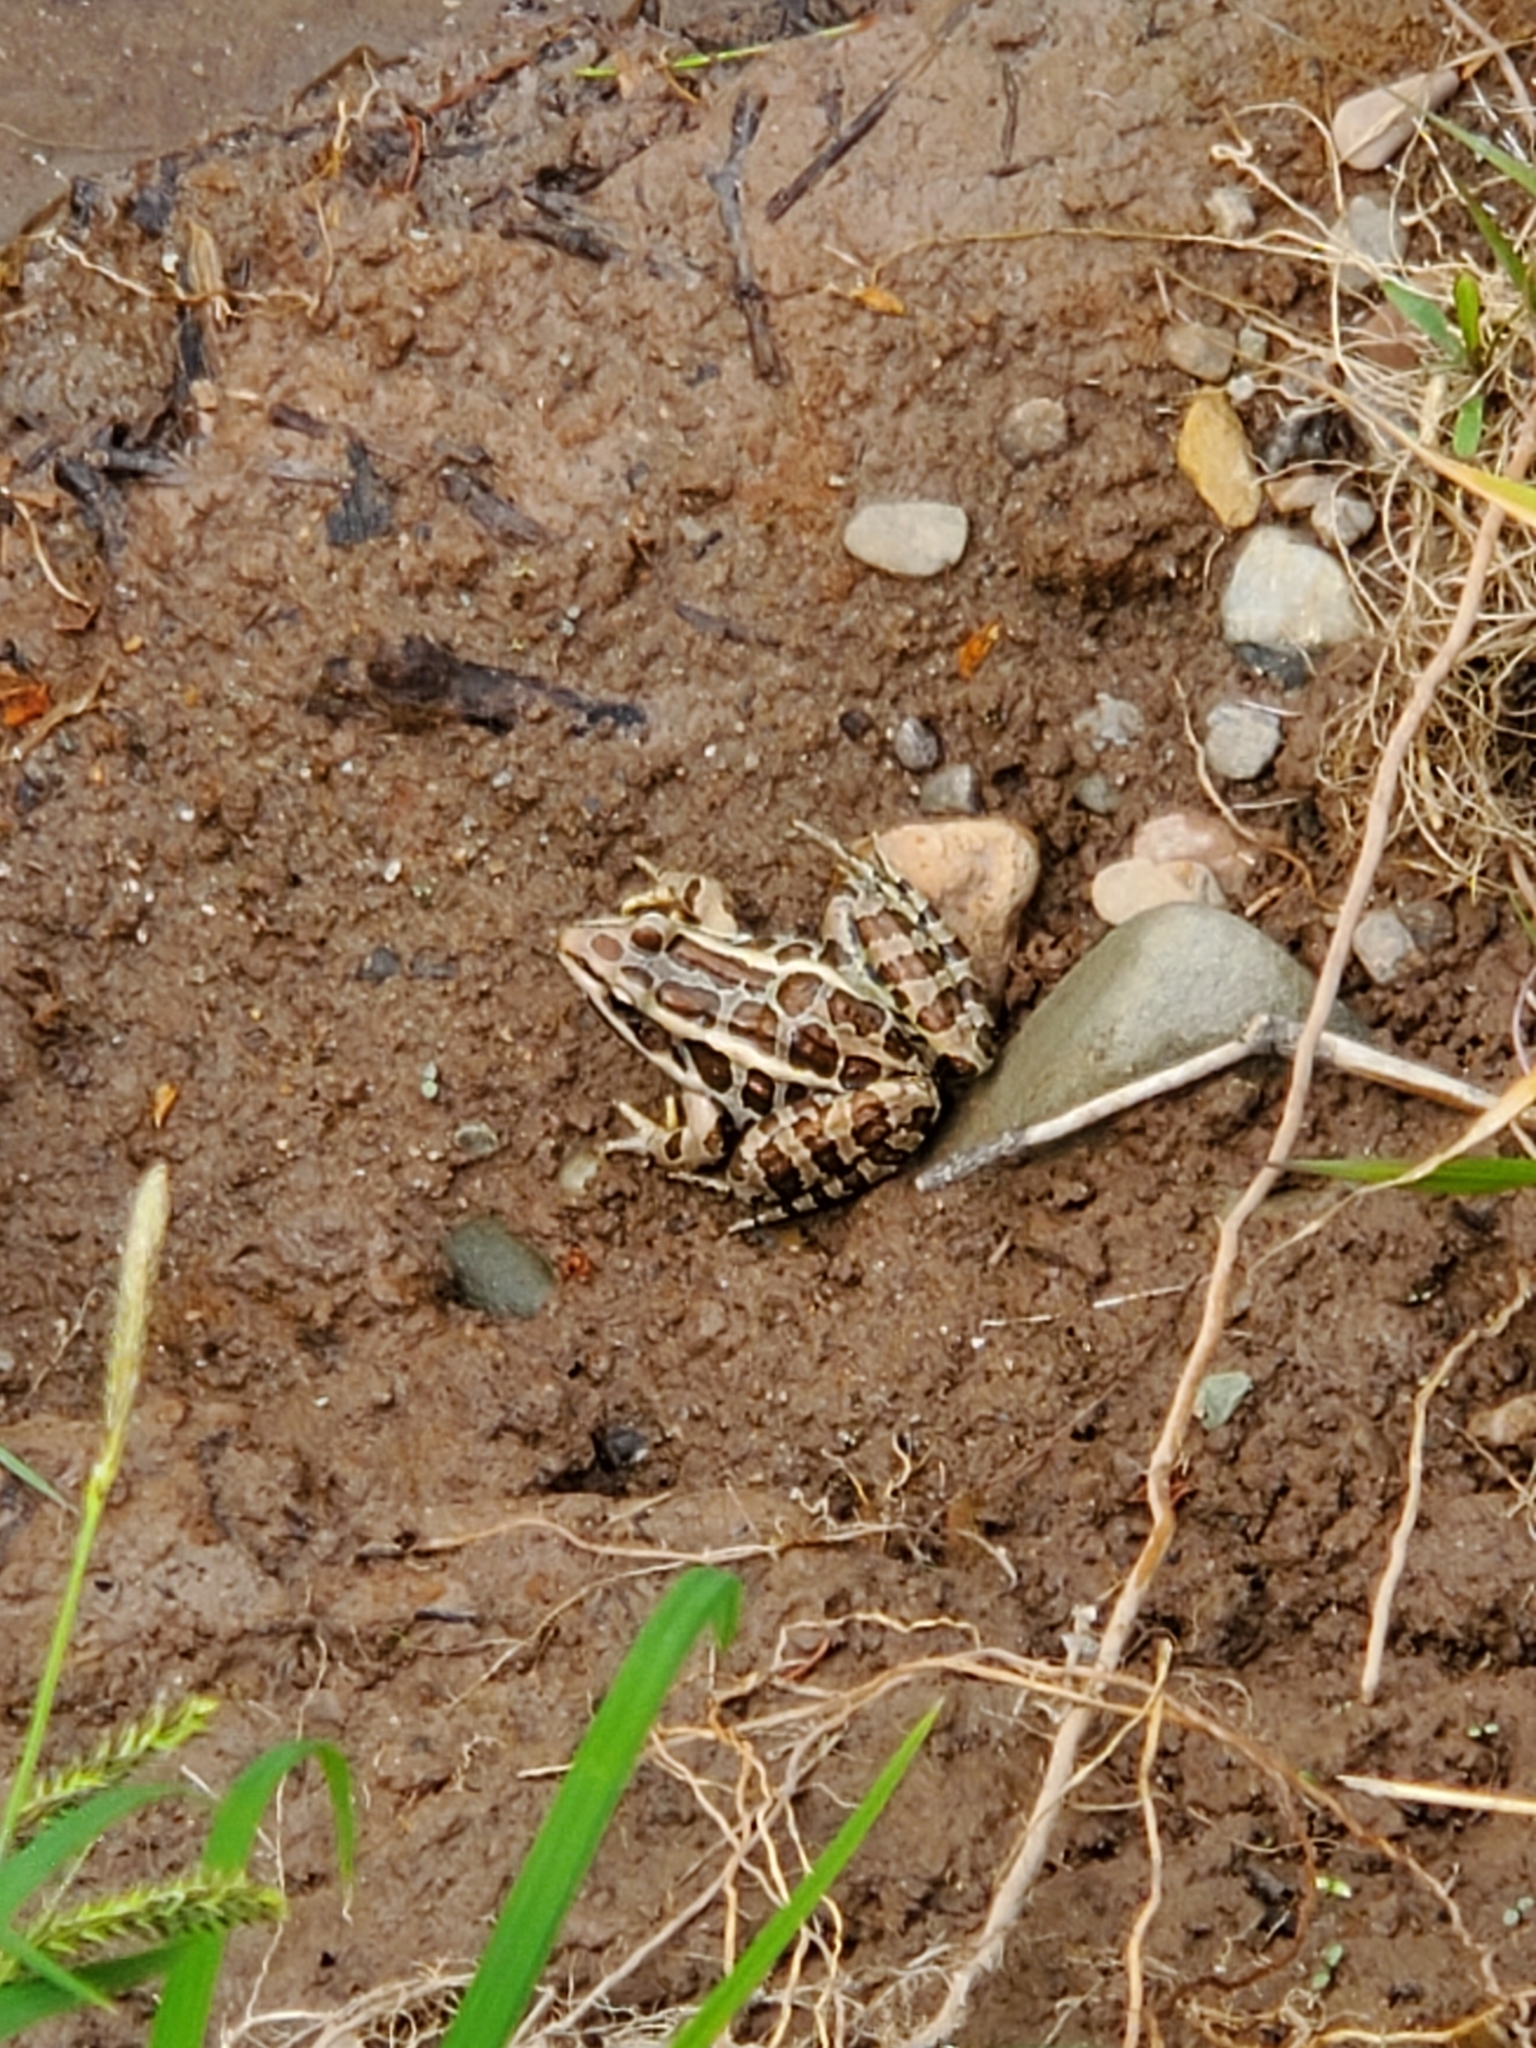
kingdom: Animalia
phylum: Chordata
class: Amphibia
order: Anura
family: Ranidae
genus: Lithobates
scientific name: Lithobates palustris
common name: Pickerel frog
